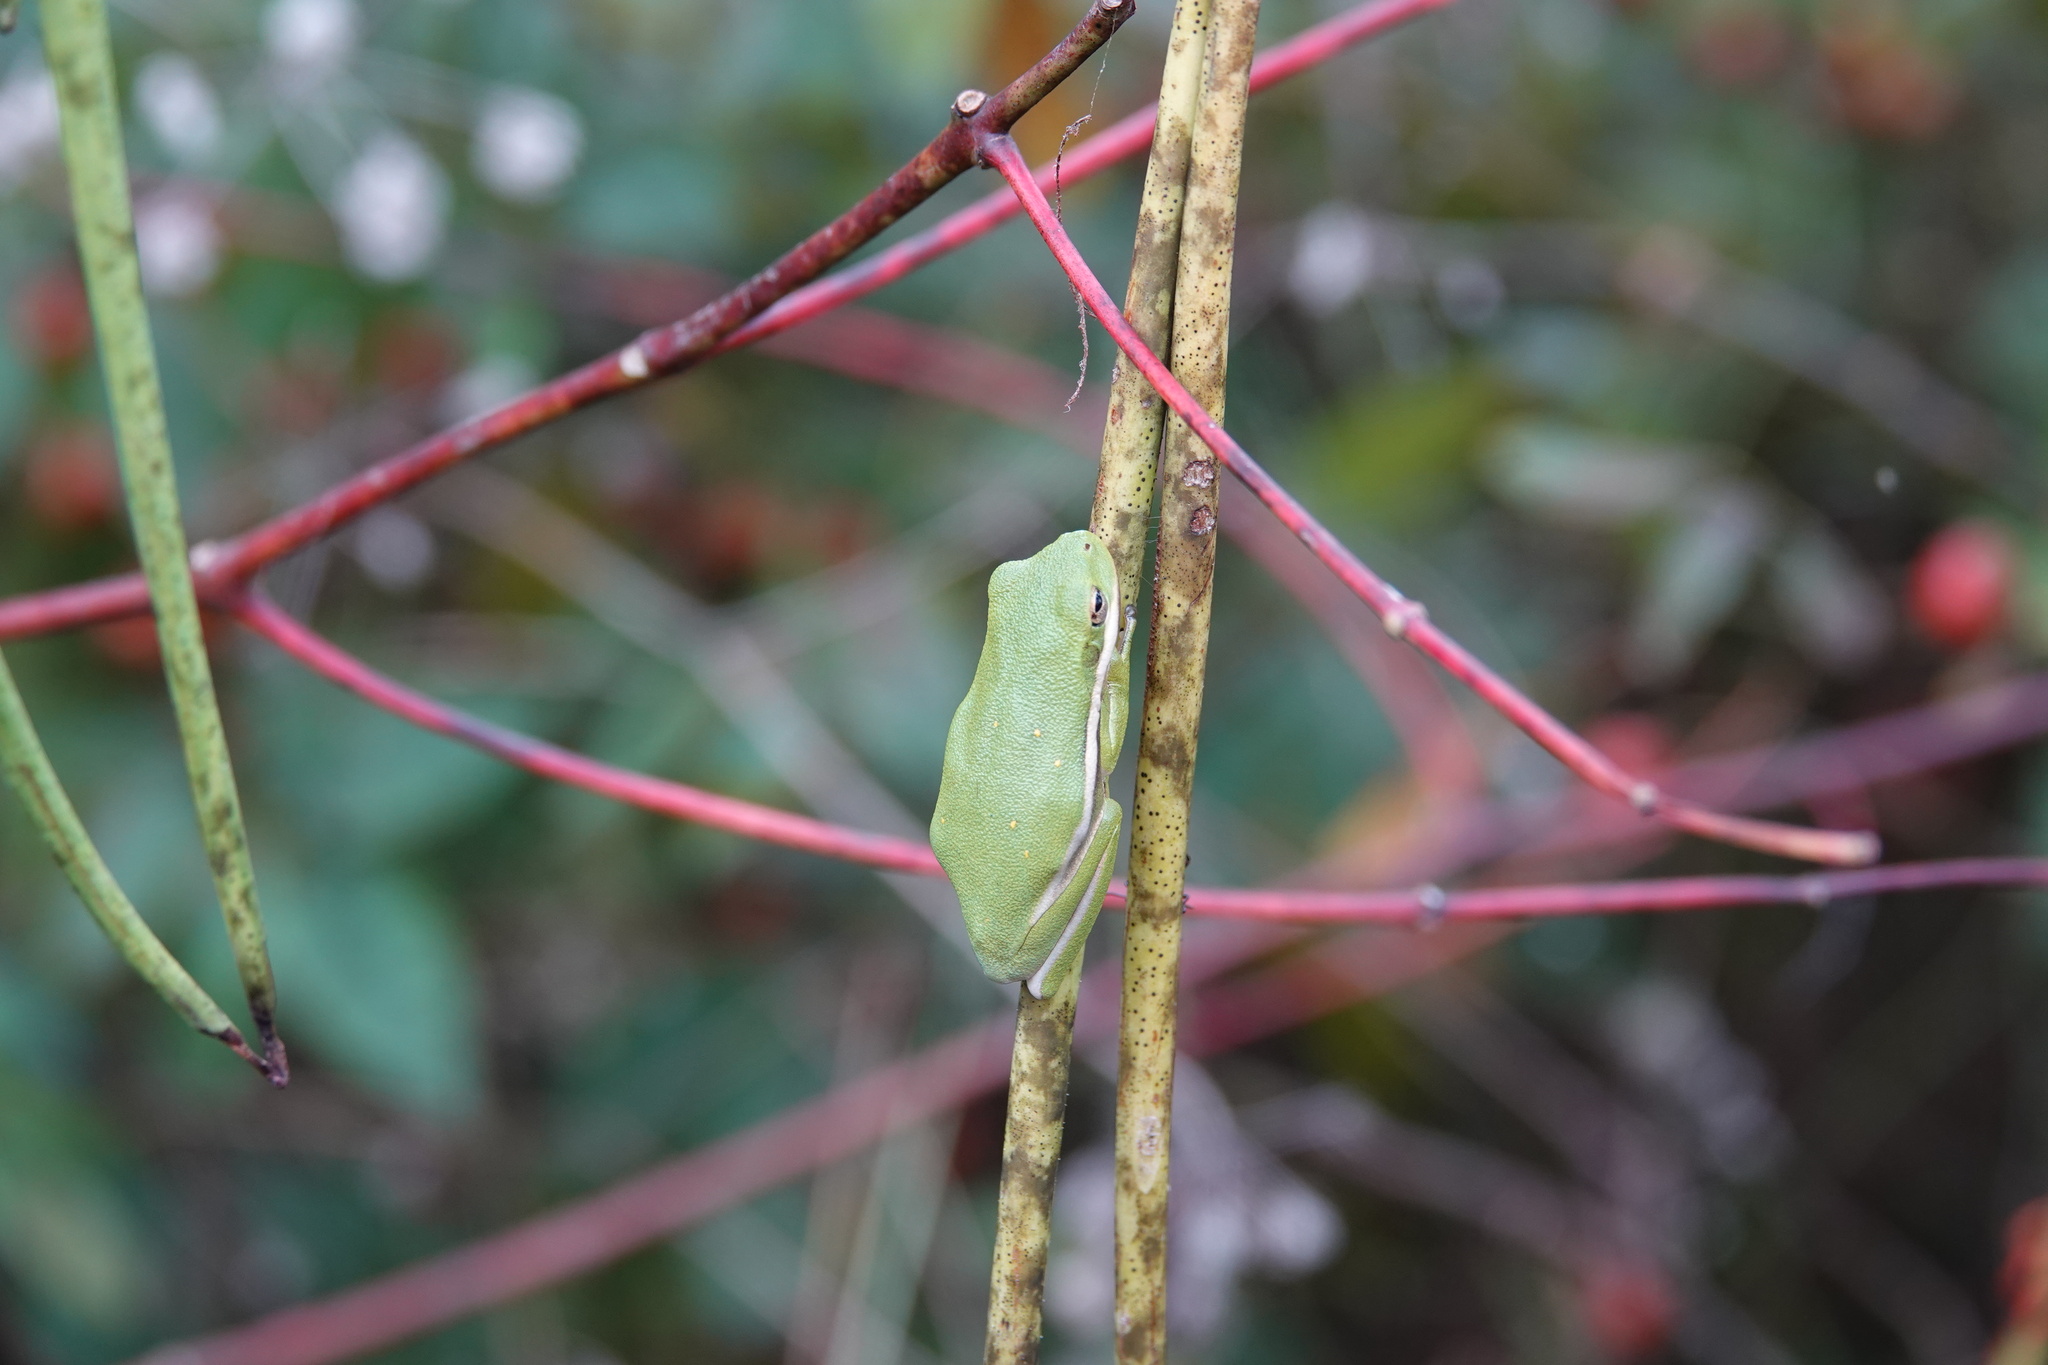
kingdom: Animalia
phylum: Chordata
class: Amphibia
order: Anura
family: Hylidae
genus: Dryophytes
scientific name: Dryophytes cinereus
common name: Green treefrog
